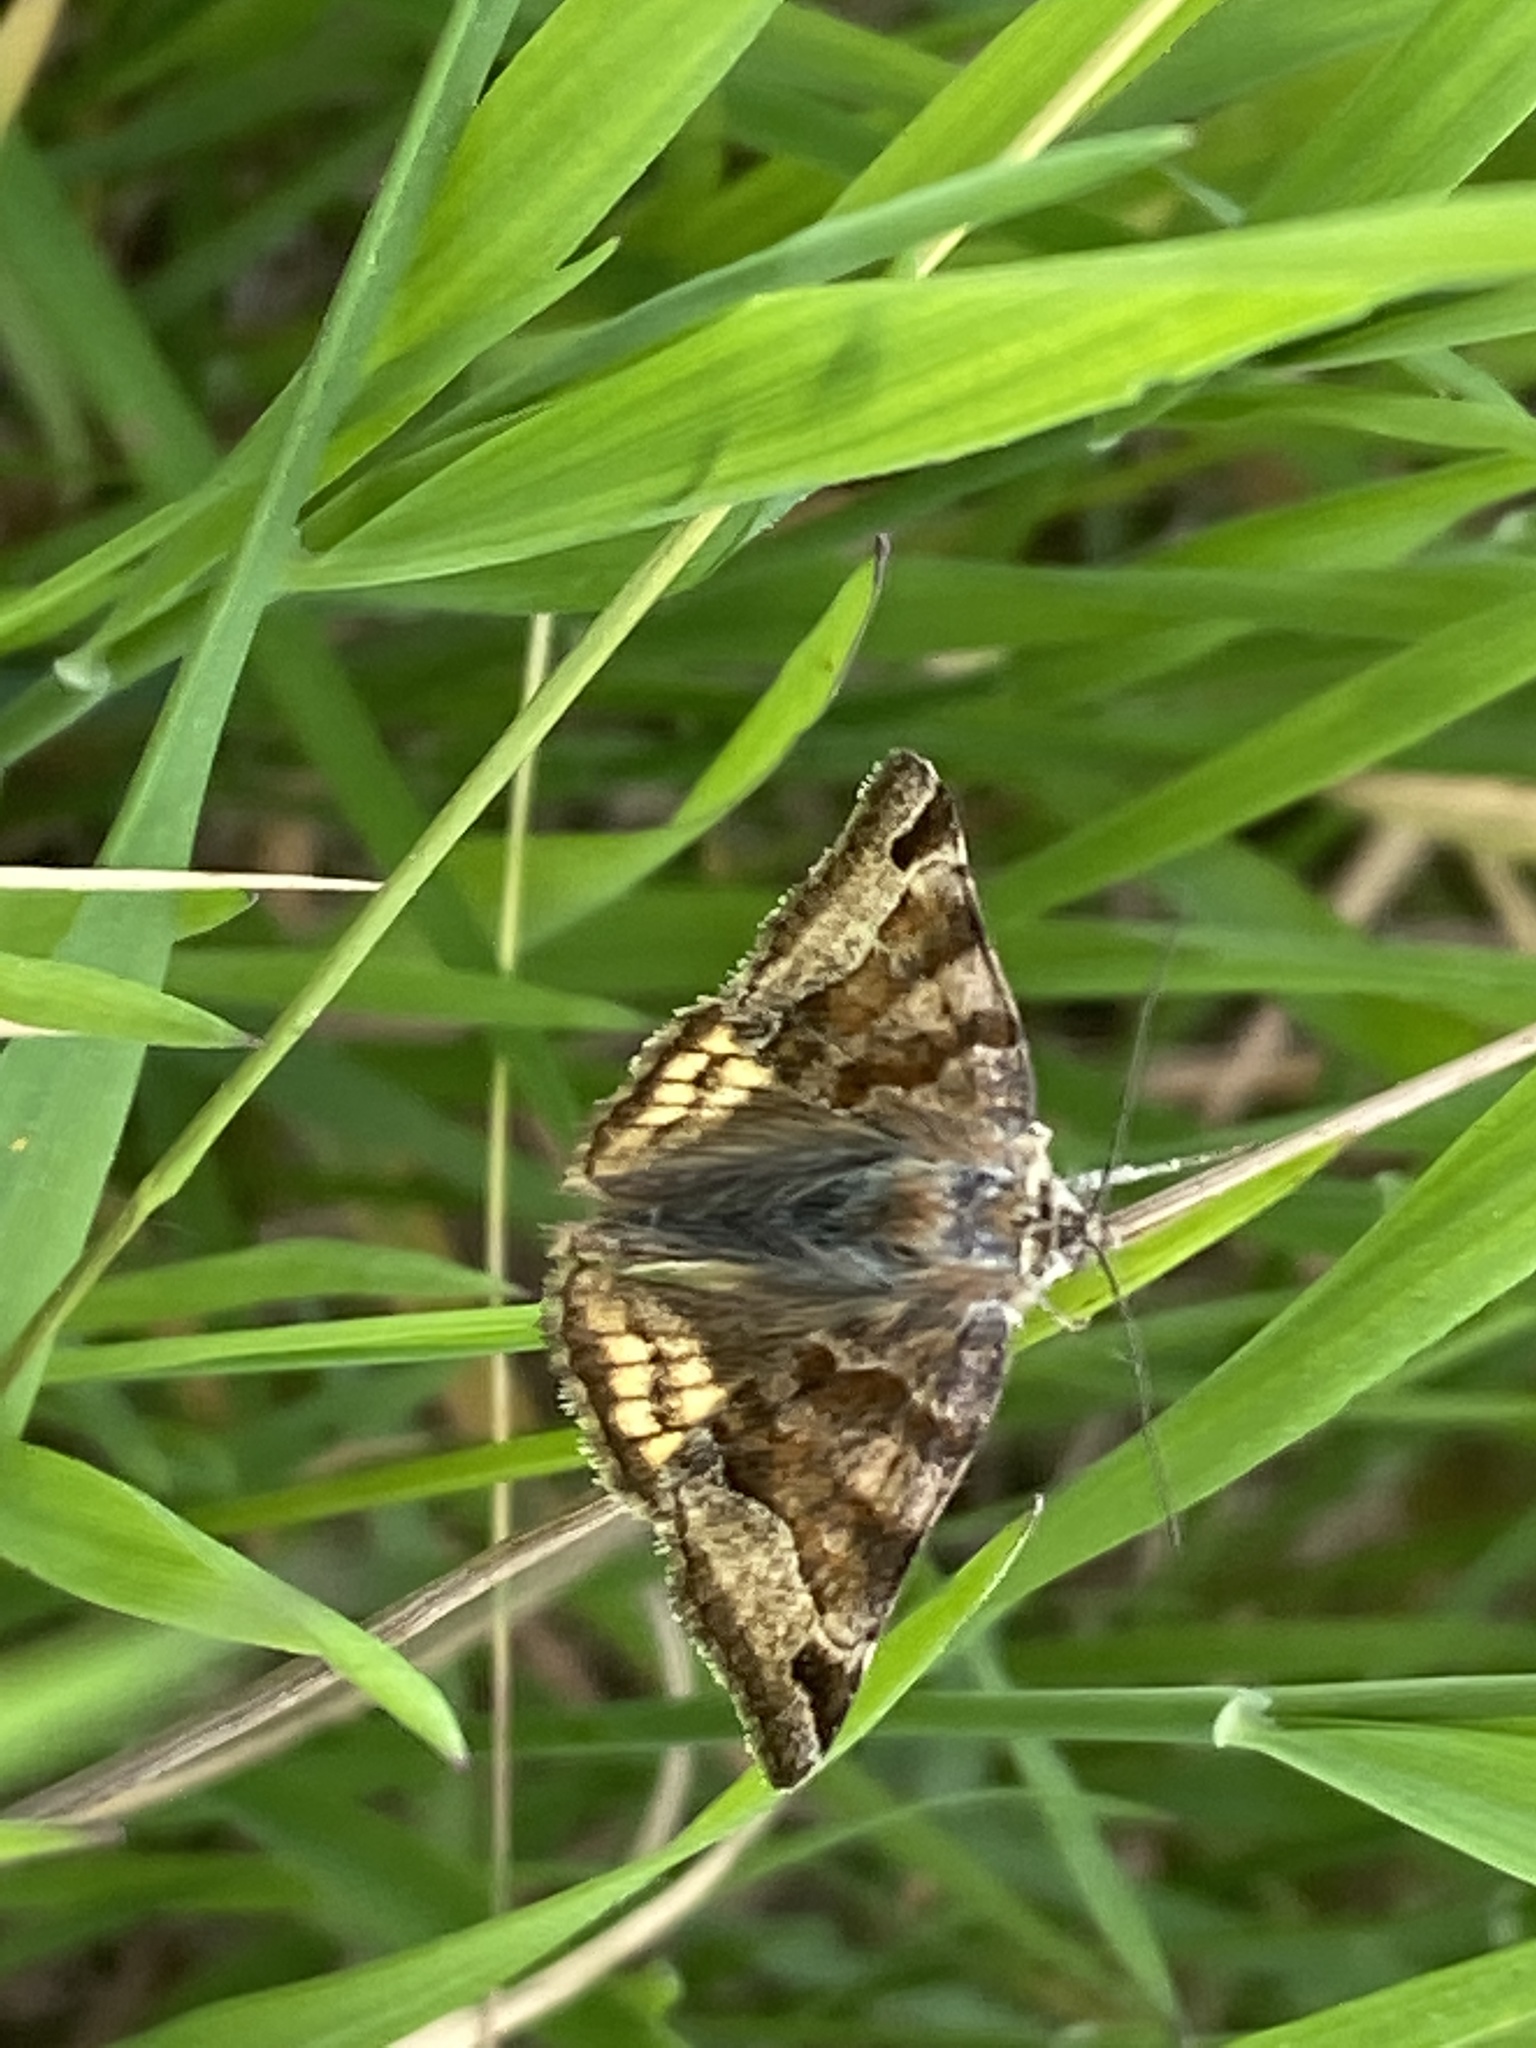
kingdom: Animalia
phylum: Arthropoda
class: Insecta
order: Lepidoptera
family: Erebidae
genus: Euclidia
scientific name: Euclidia glyphica
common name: Burnet companion
